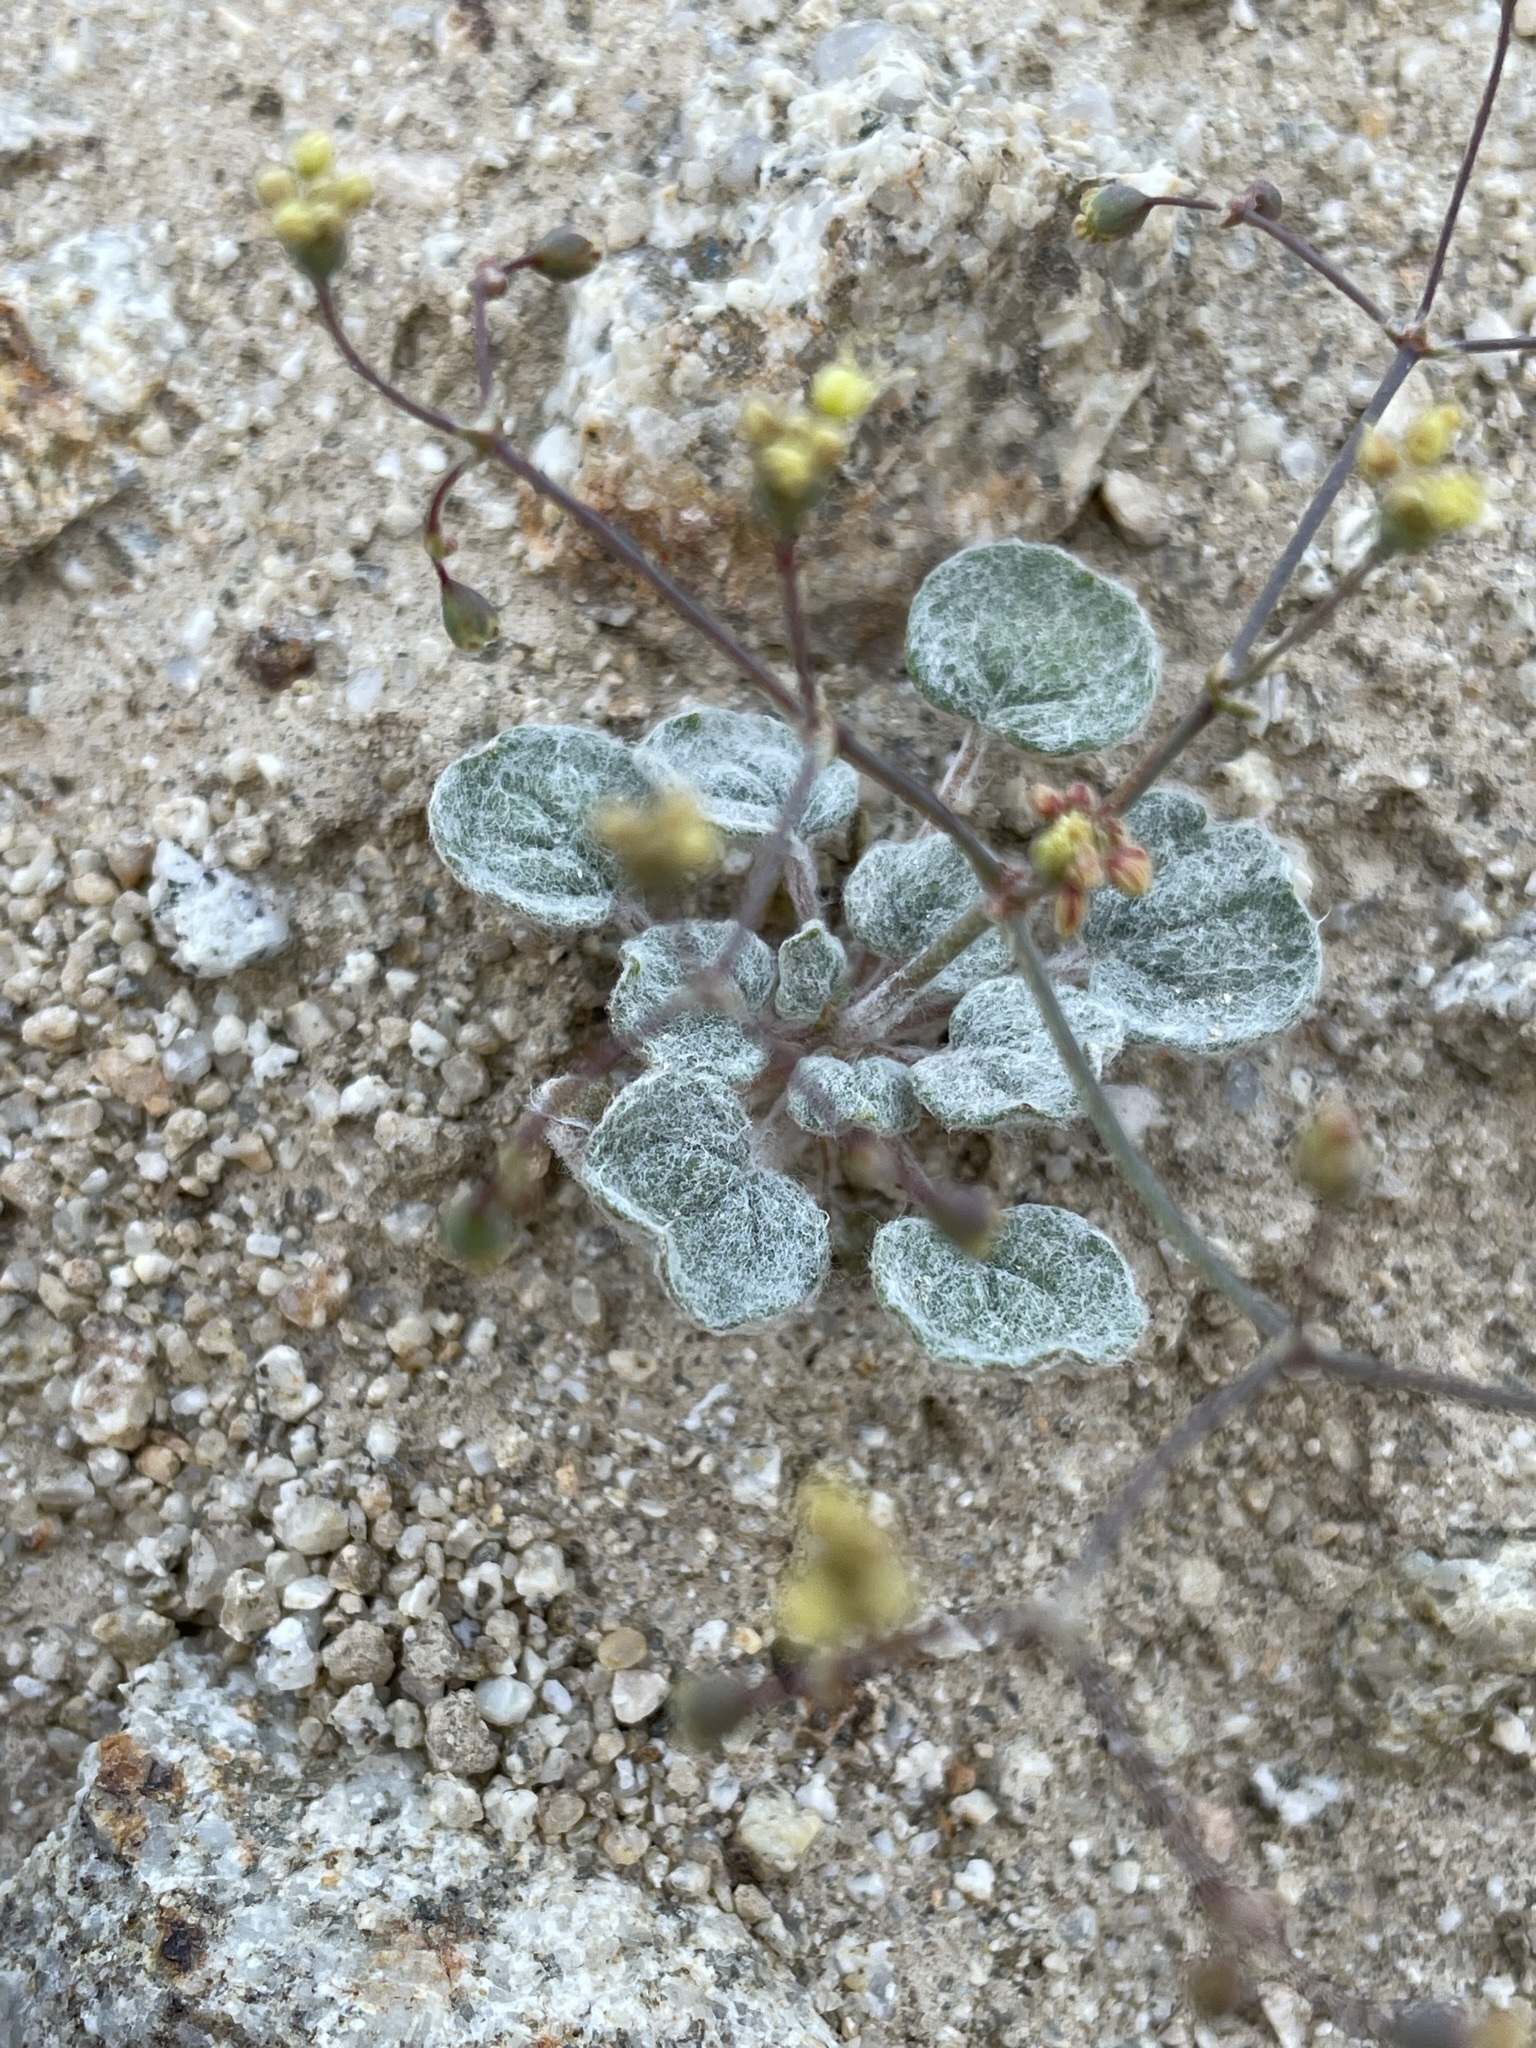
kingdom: Plantae
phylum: Tracheophyta
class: Magnoliopsida
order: Caryophyllales
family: Polygonaceae
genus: Eriogonum
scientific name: Eriogonum reniforme
